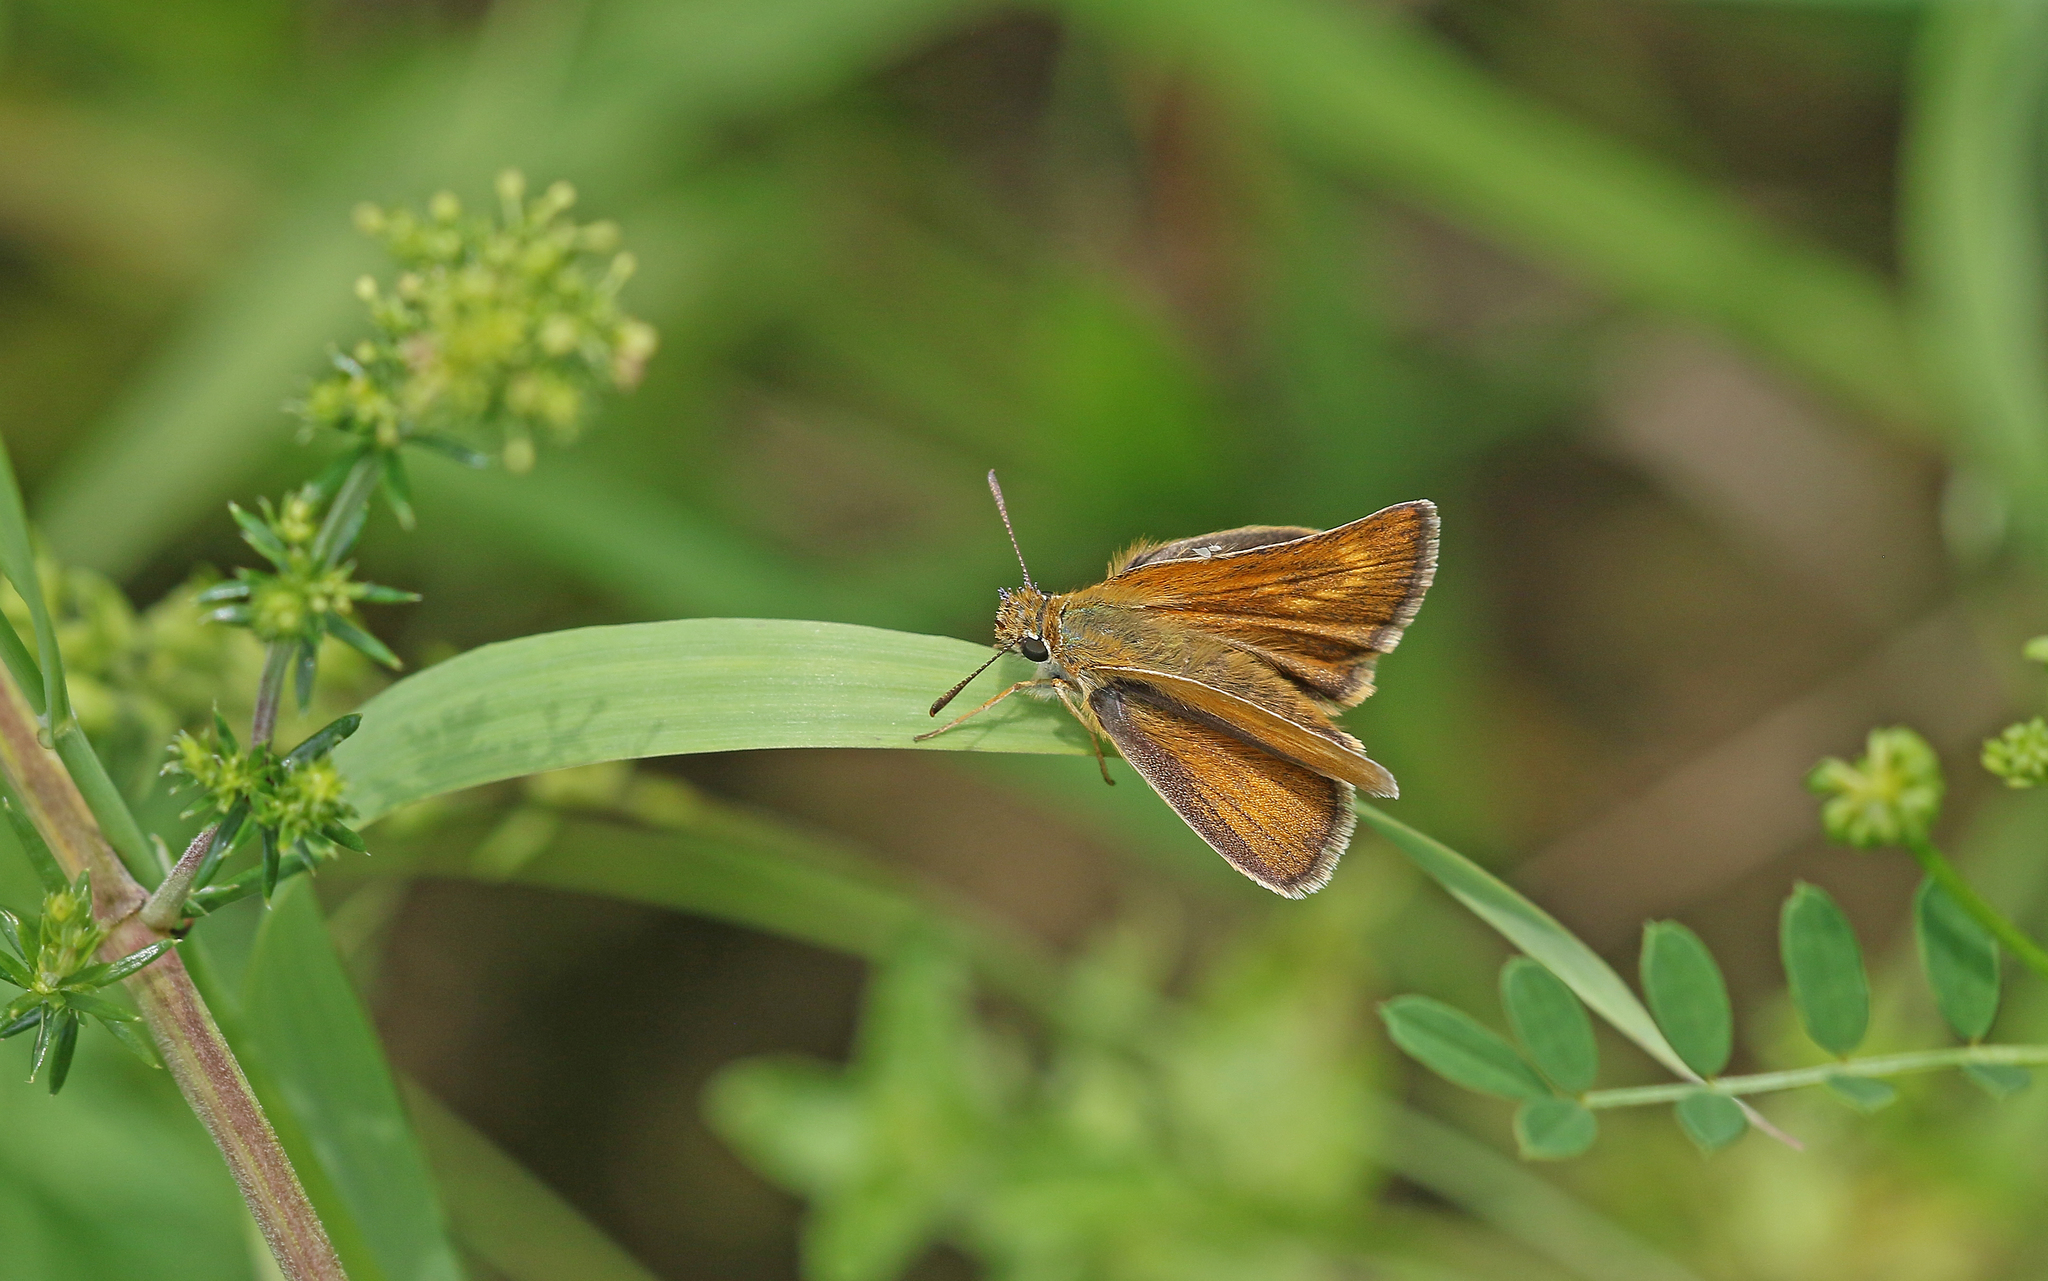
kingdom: Animalia
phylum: Arthropoda
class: Insecta
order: Lepidoptera
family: Hesperiidae
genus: Thymelicus
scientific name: Thymelicus acteon
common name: Lulworth skipper
